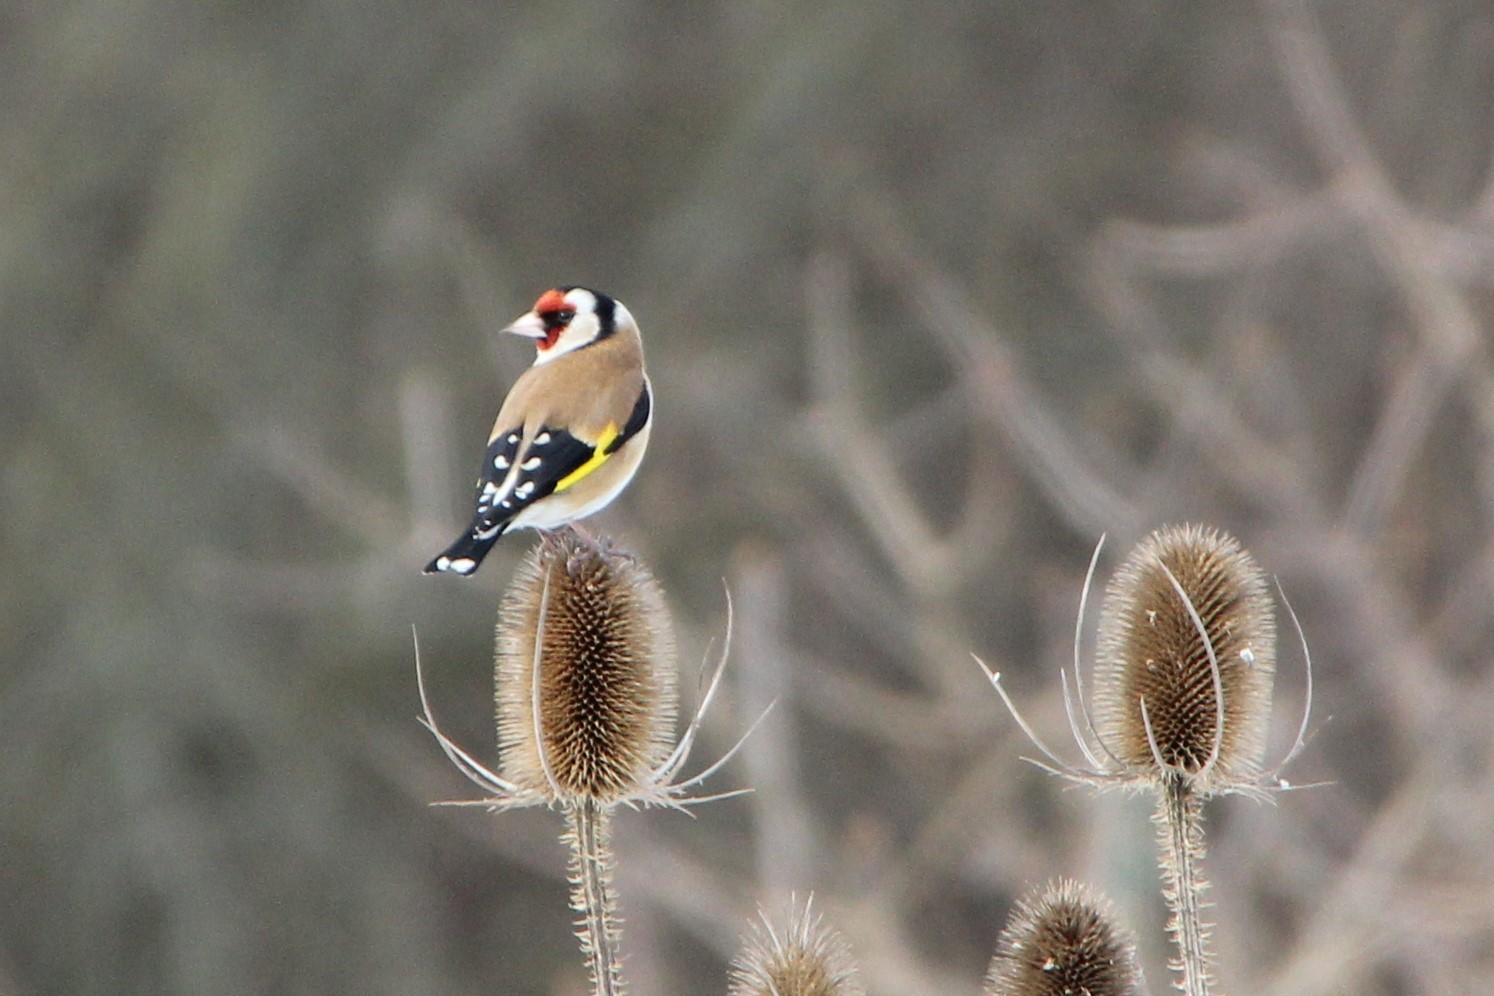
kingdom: Animalia
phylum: Chordata
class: Aves
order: Passeriformes
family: Fringillidae
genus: Carduelis
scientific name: Carduelis carduelis
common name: European goldfinch
